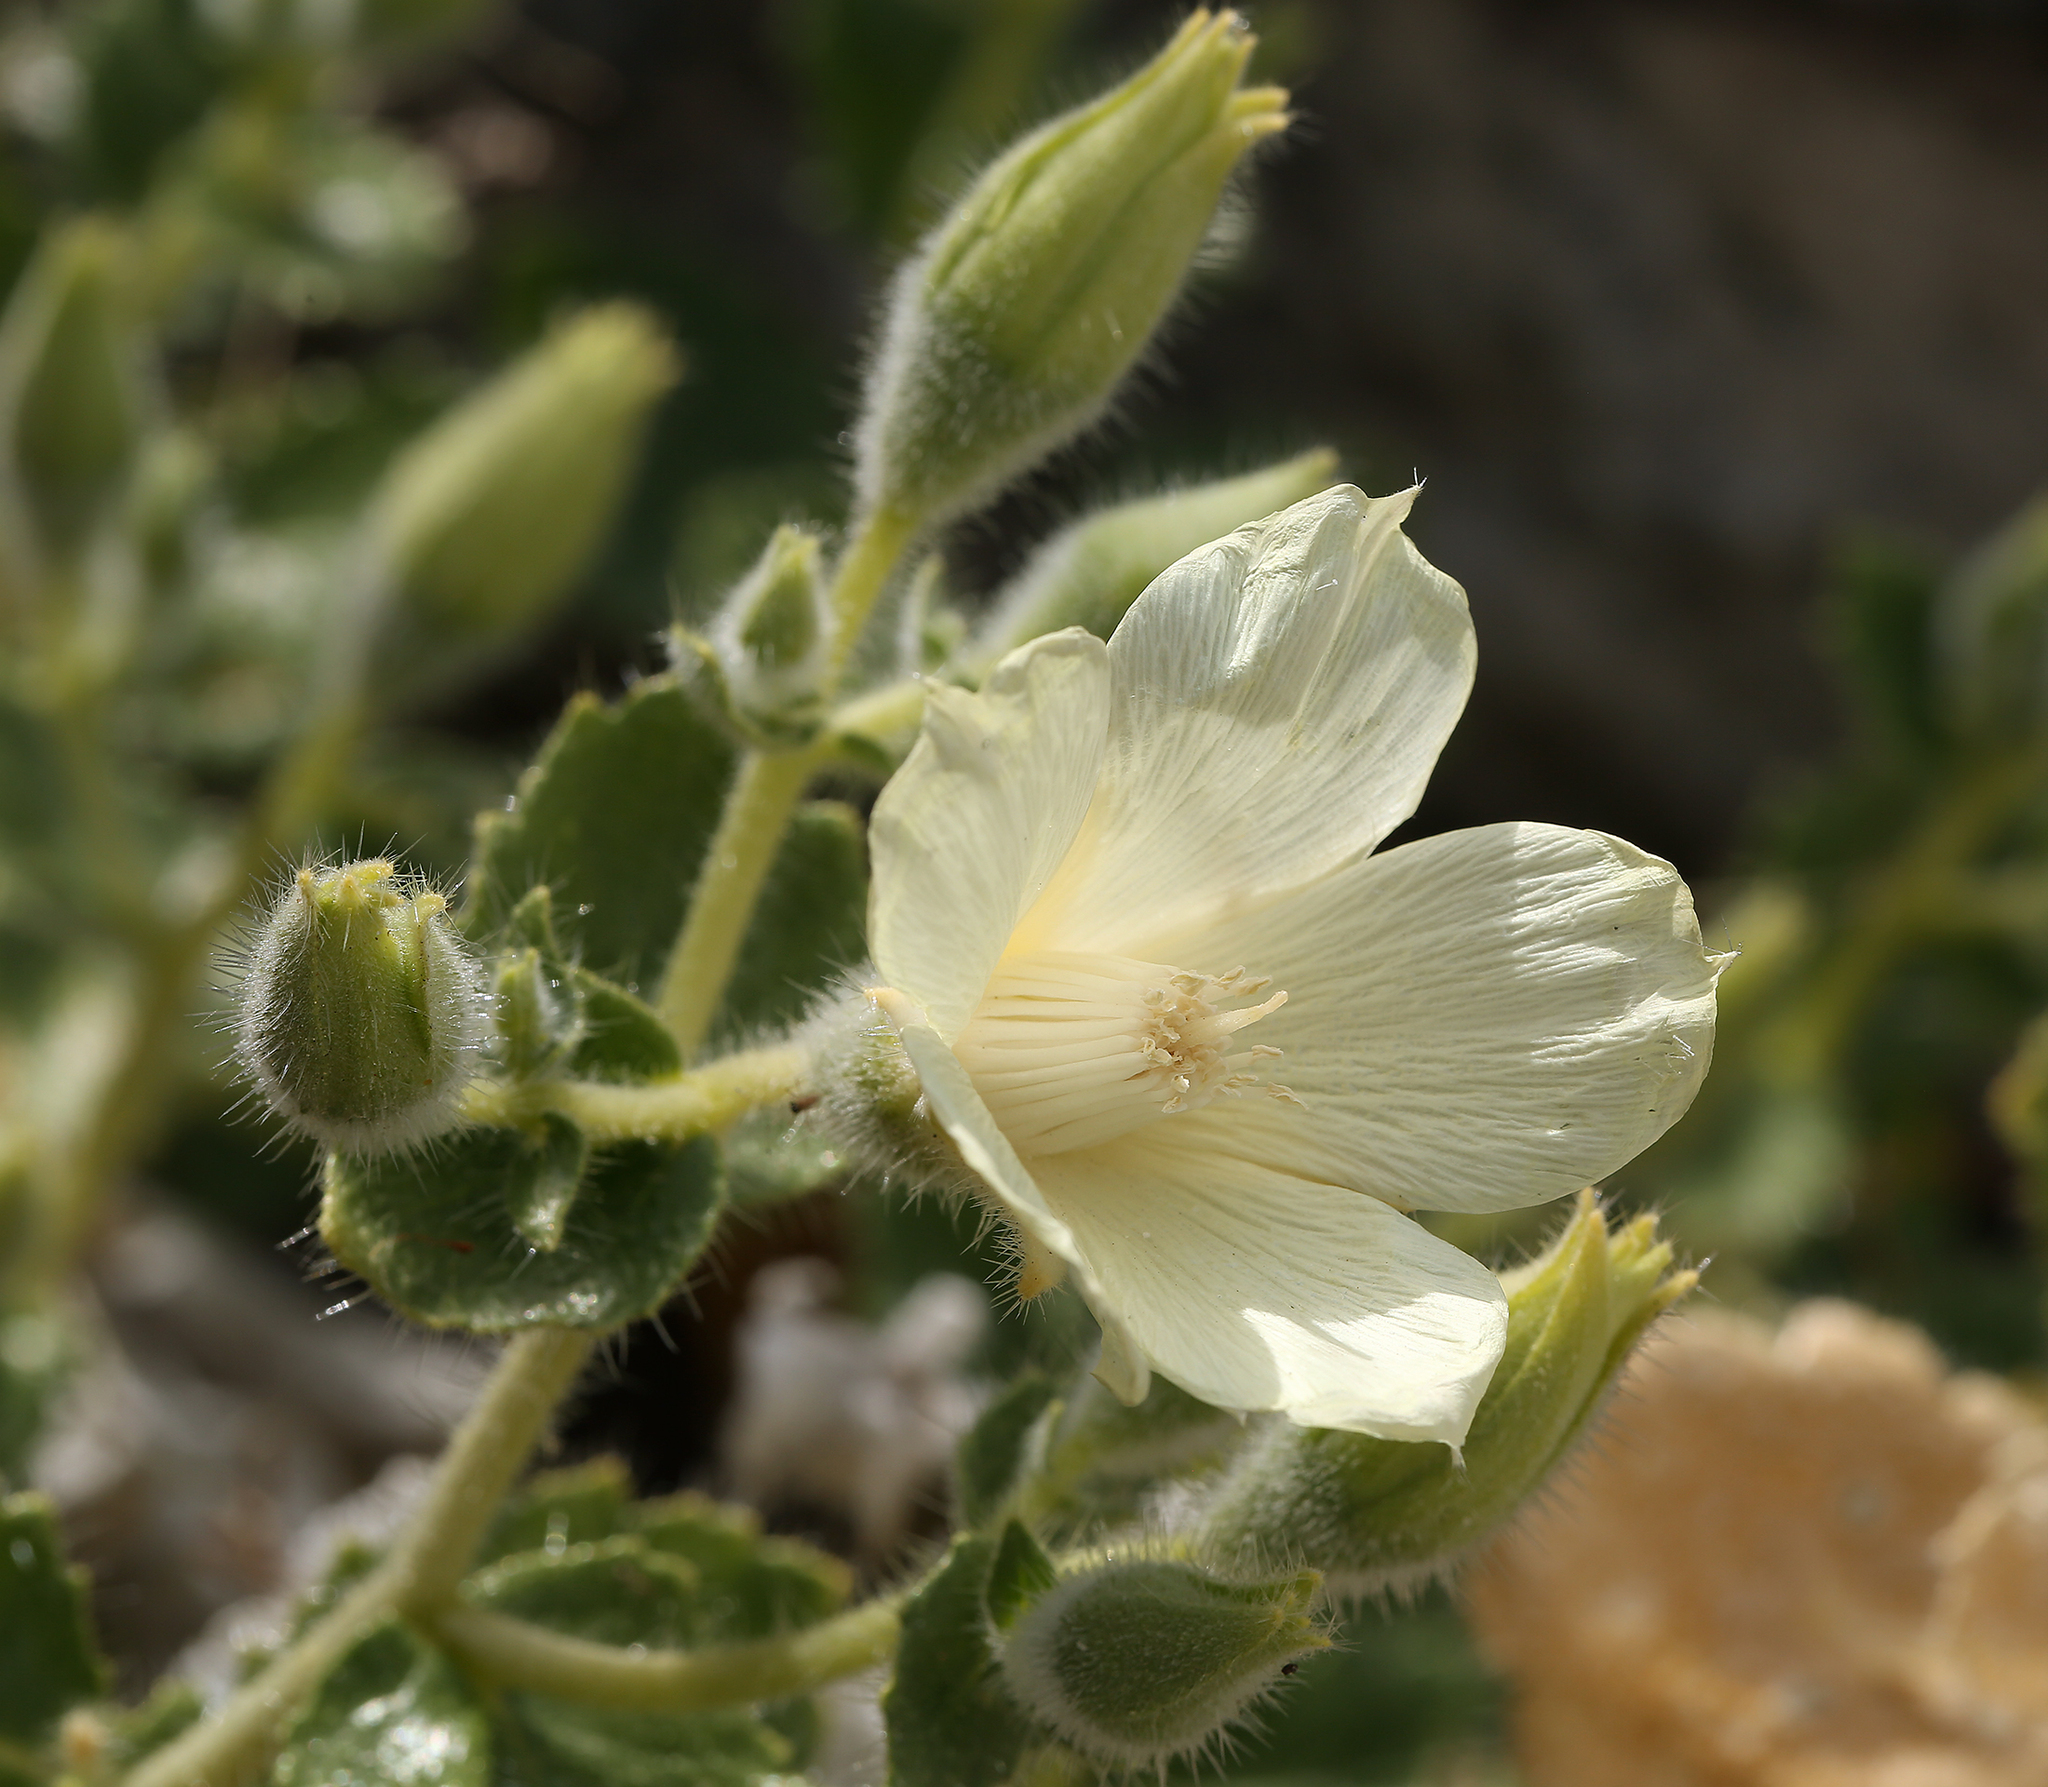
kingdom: Plantae
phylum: Tracheophyta
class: Magnoliopsida
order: Cornales
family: Loasaceae
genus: Eucnide
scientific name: Eucnide urens
